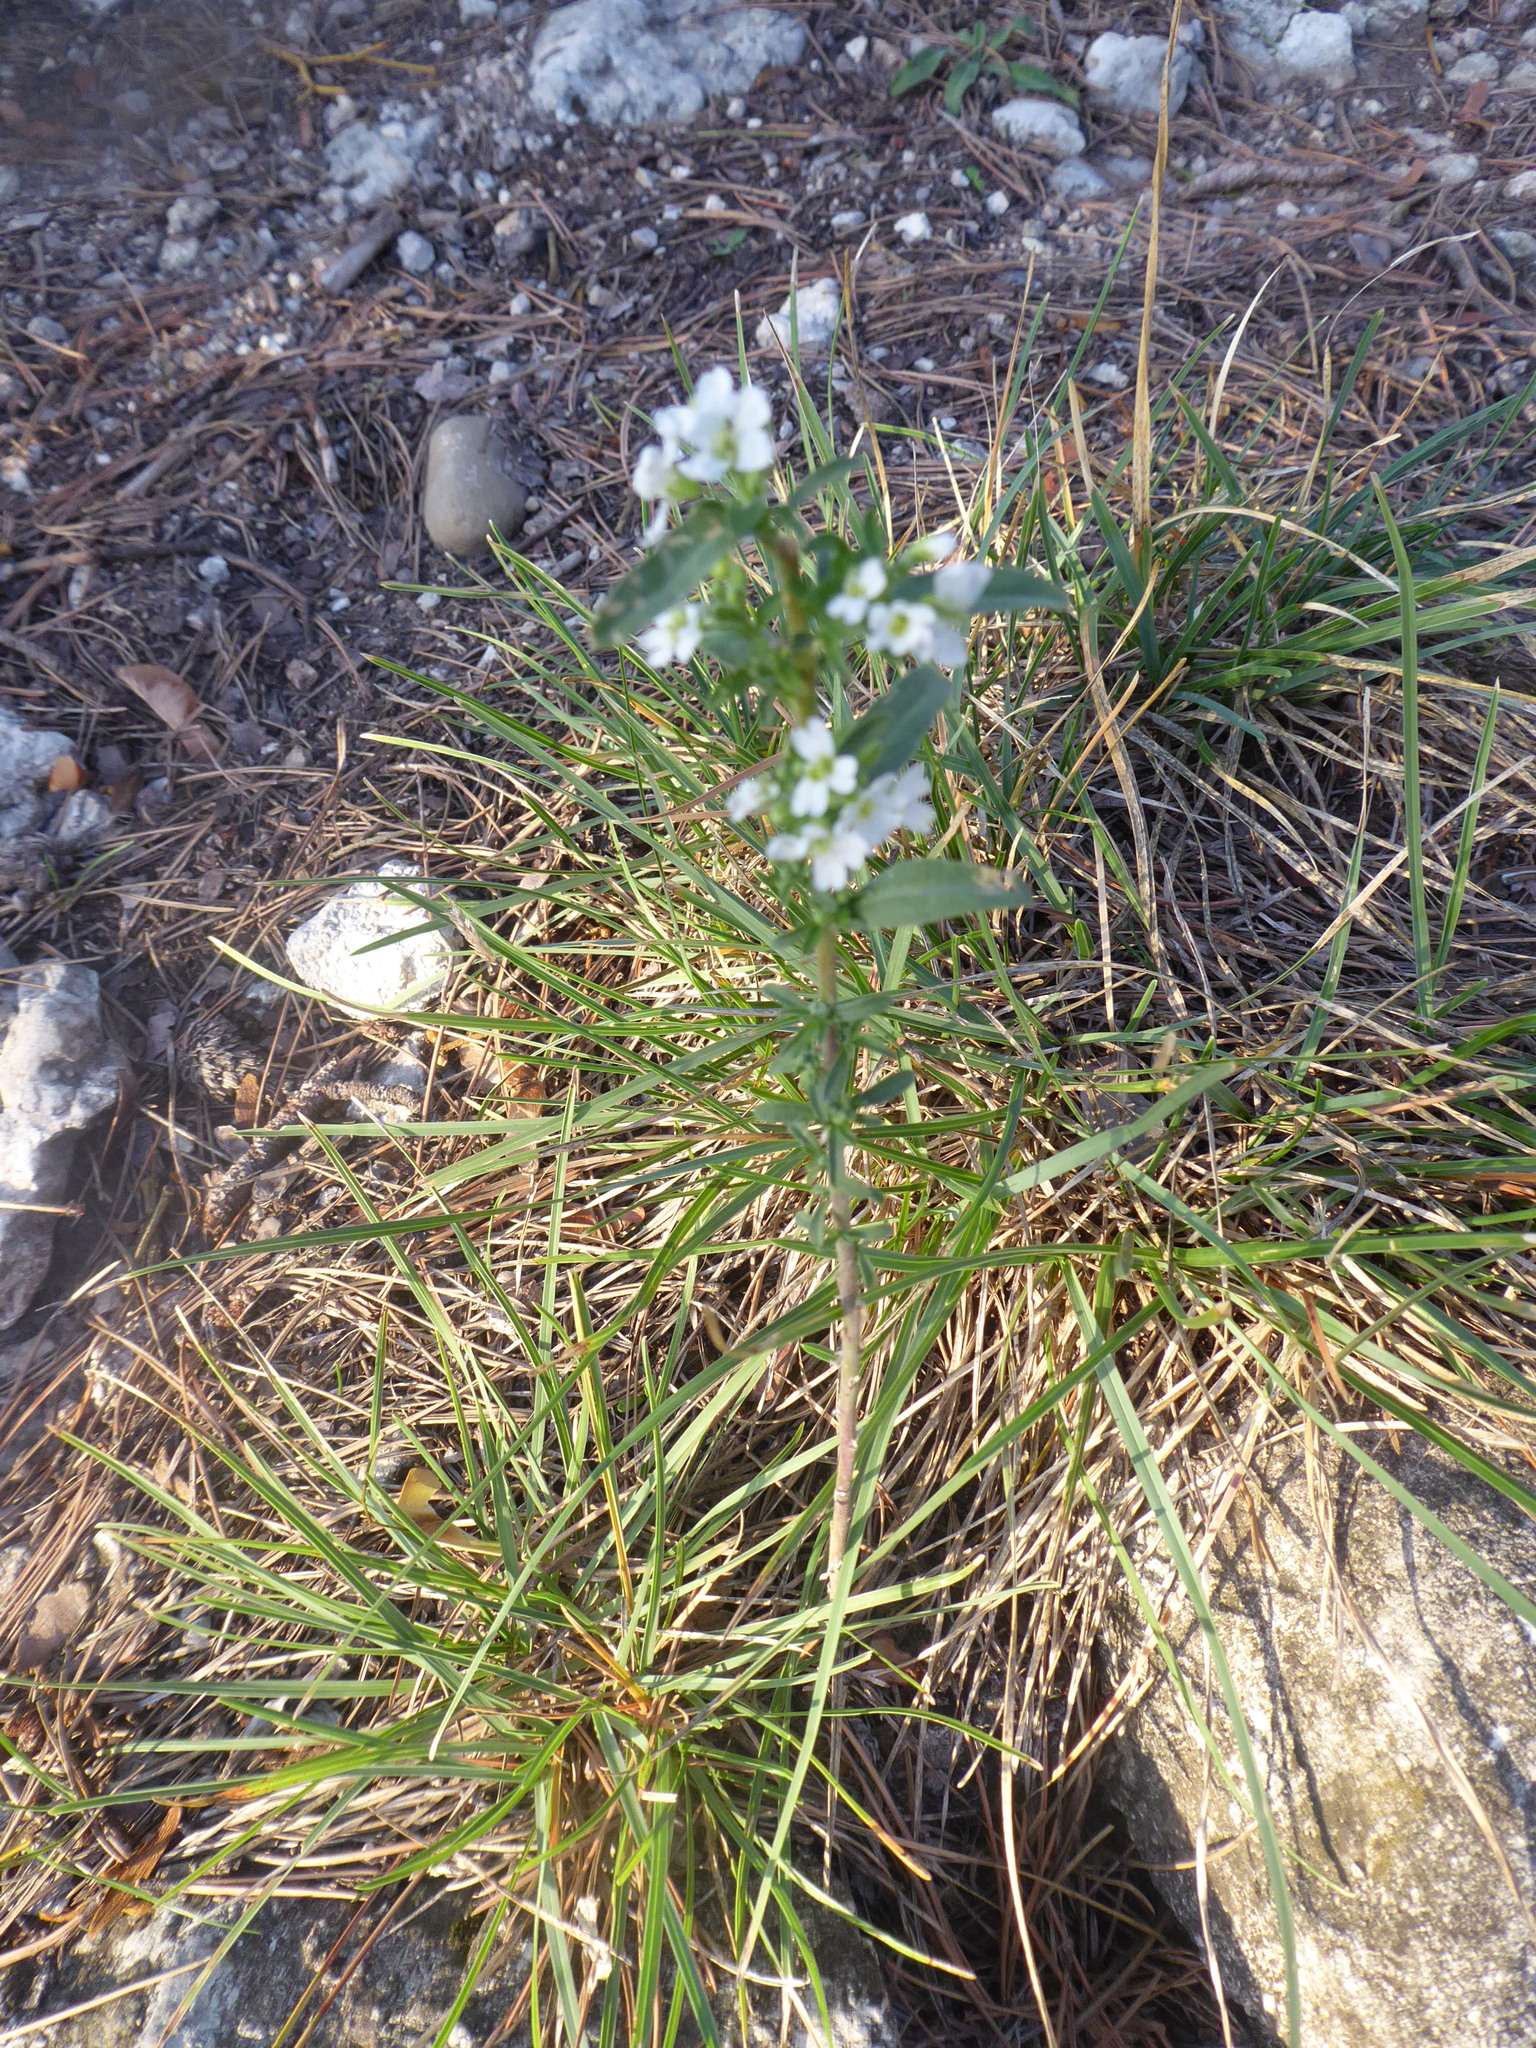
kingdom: Plantae
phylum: Tracheophyta
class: Magnoliopsida
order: Brassicales
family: Brassicaceae
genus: Berteroa
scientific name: Berteroa incana
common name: Hoary alison
